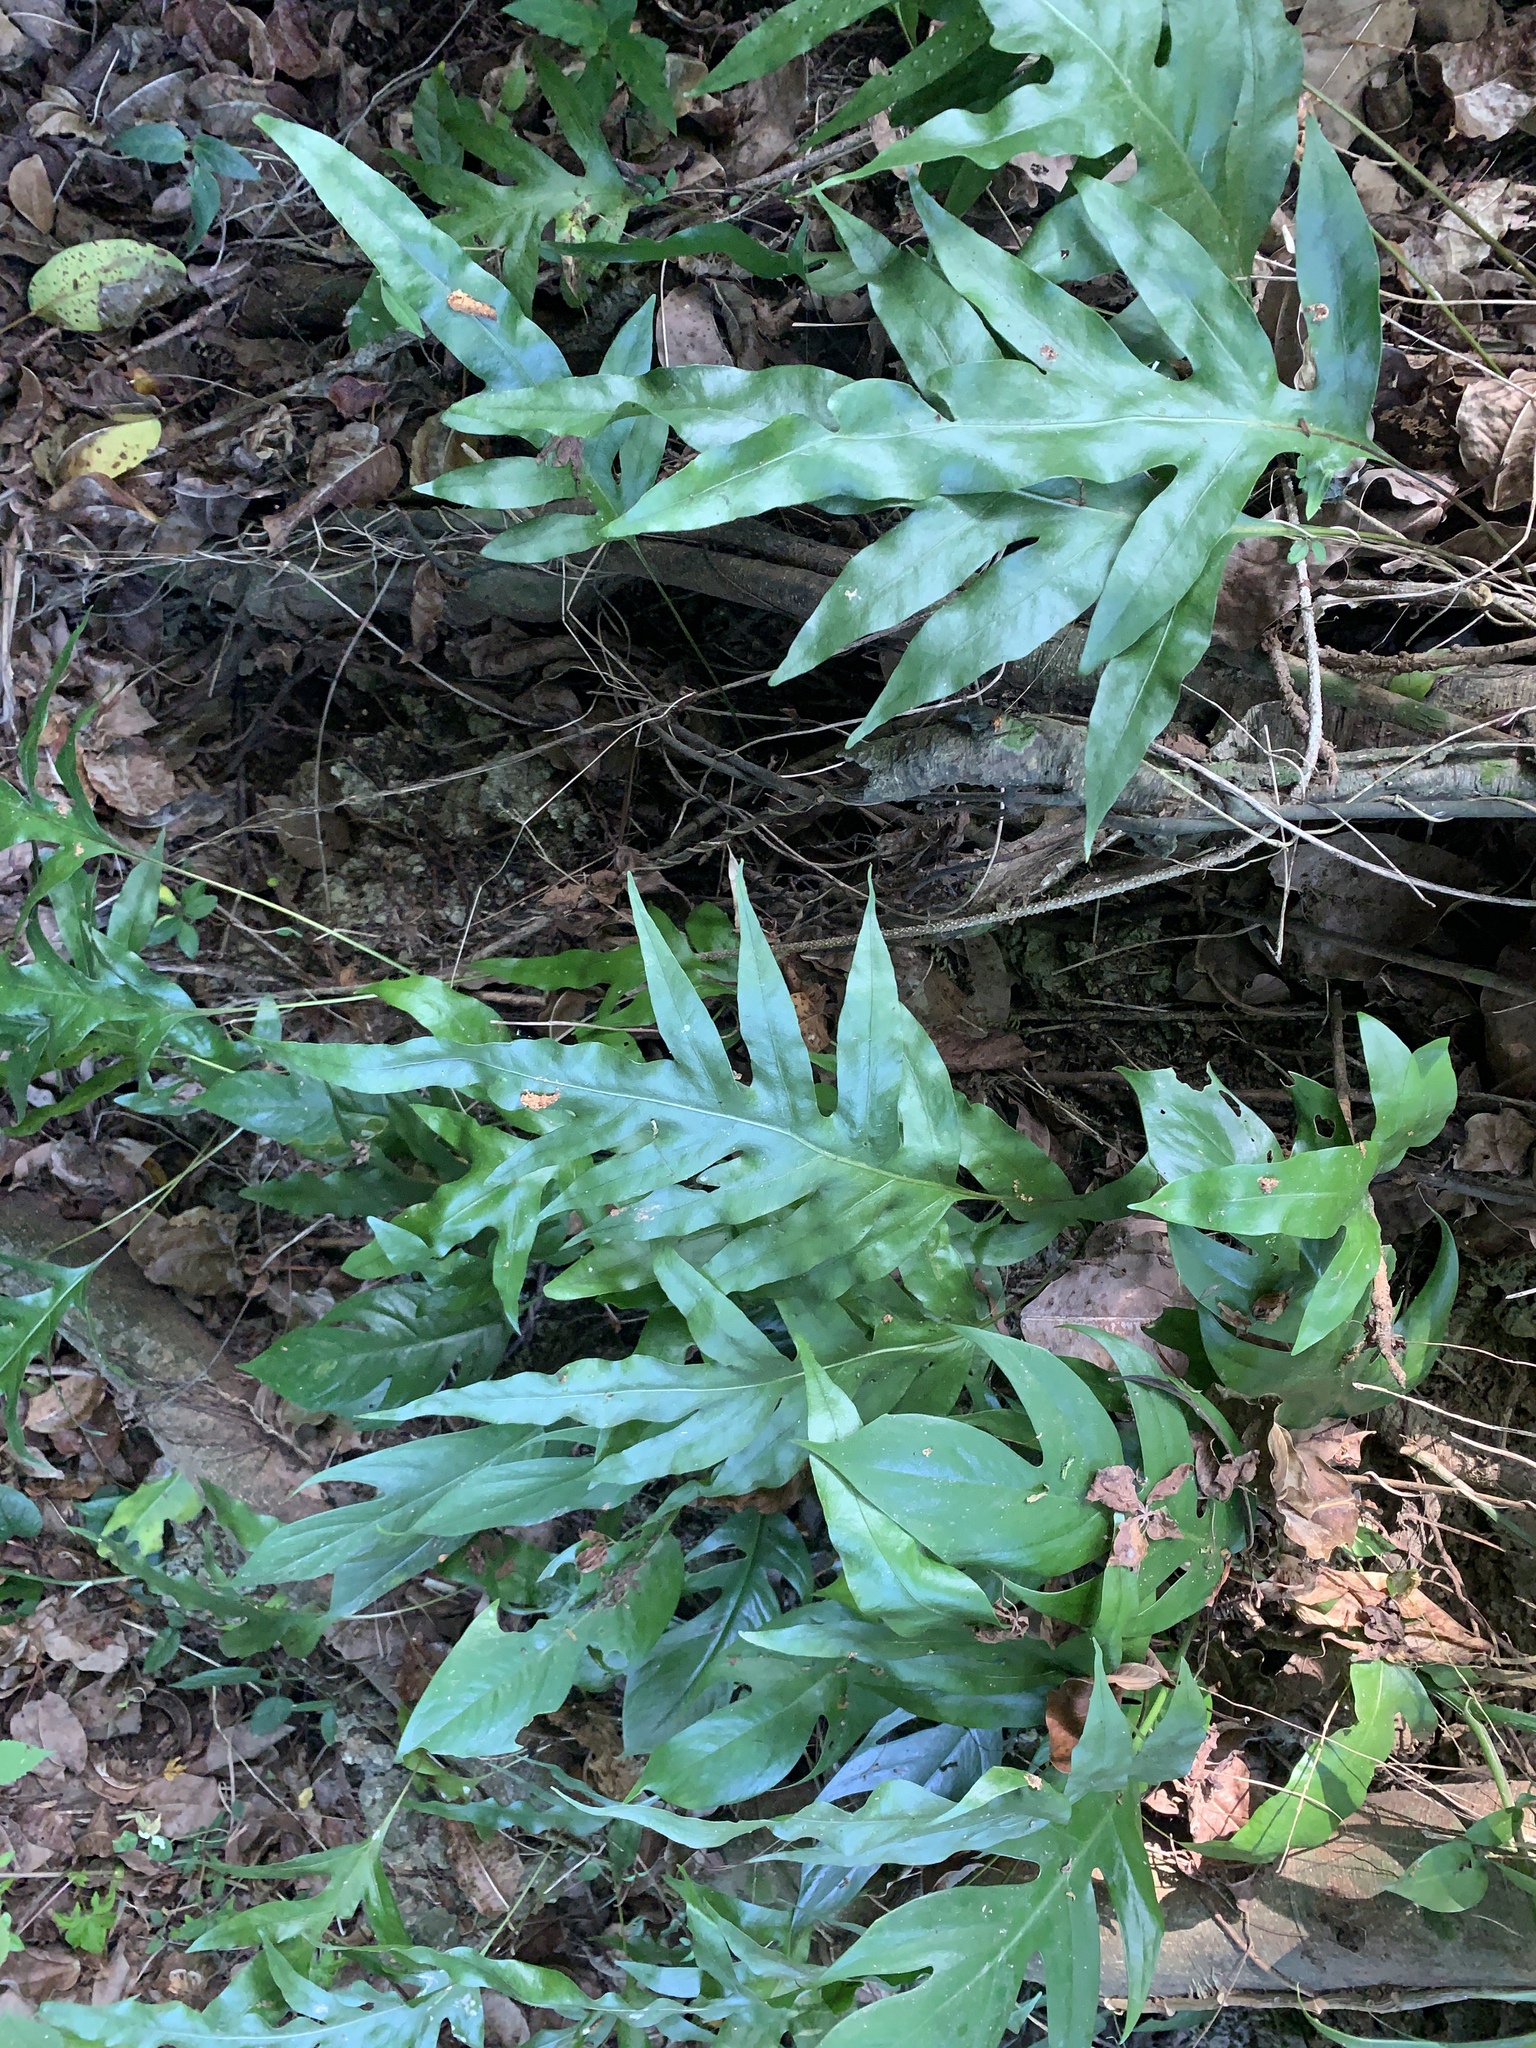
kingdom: Plantae
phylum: Tracheophyta
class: Polypodiopsida
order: Polypodiales
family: Polypodiaceae
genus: Microsorum
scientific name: Microsorum scolopendria
